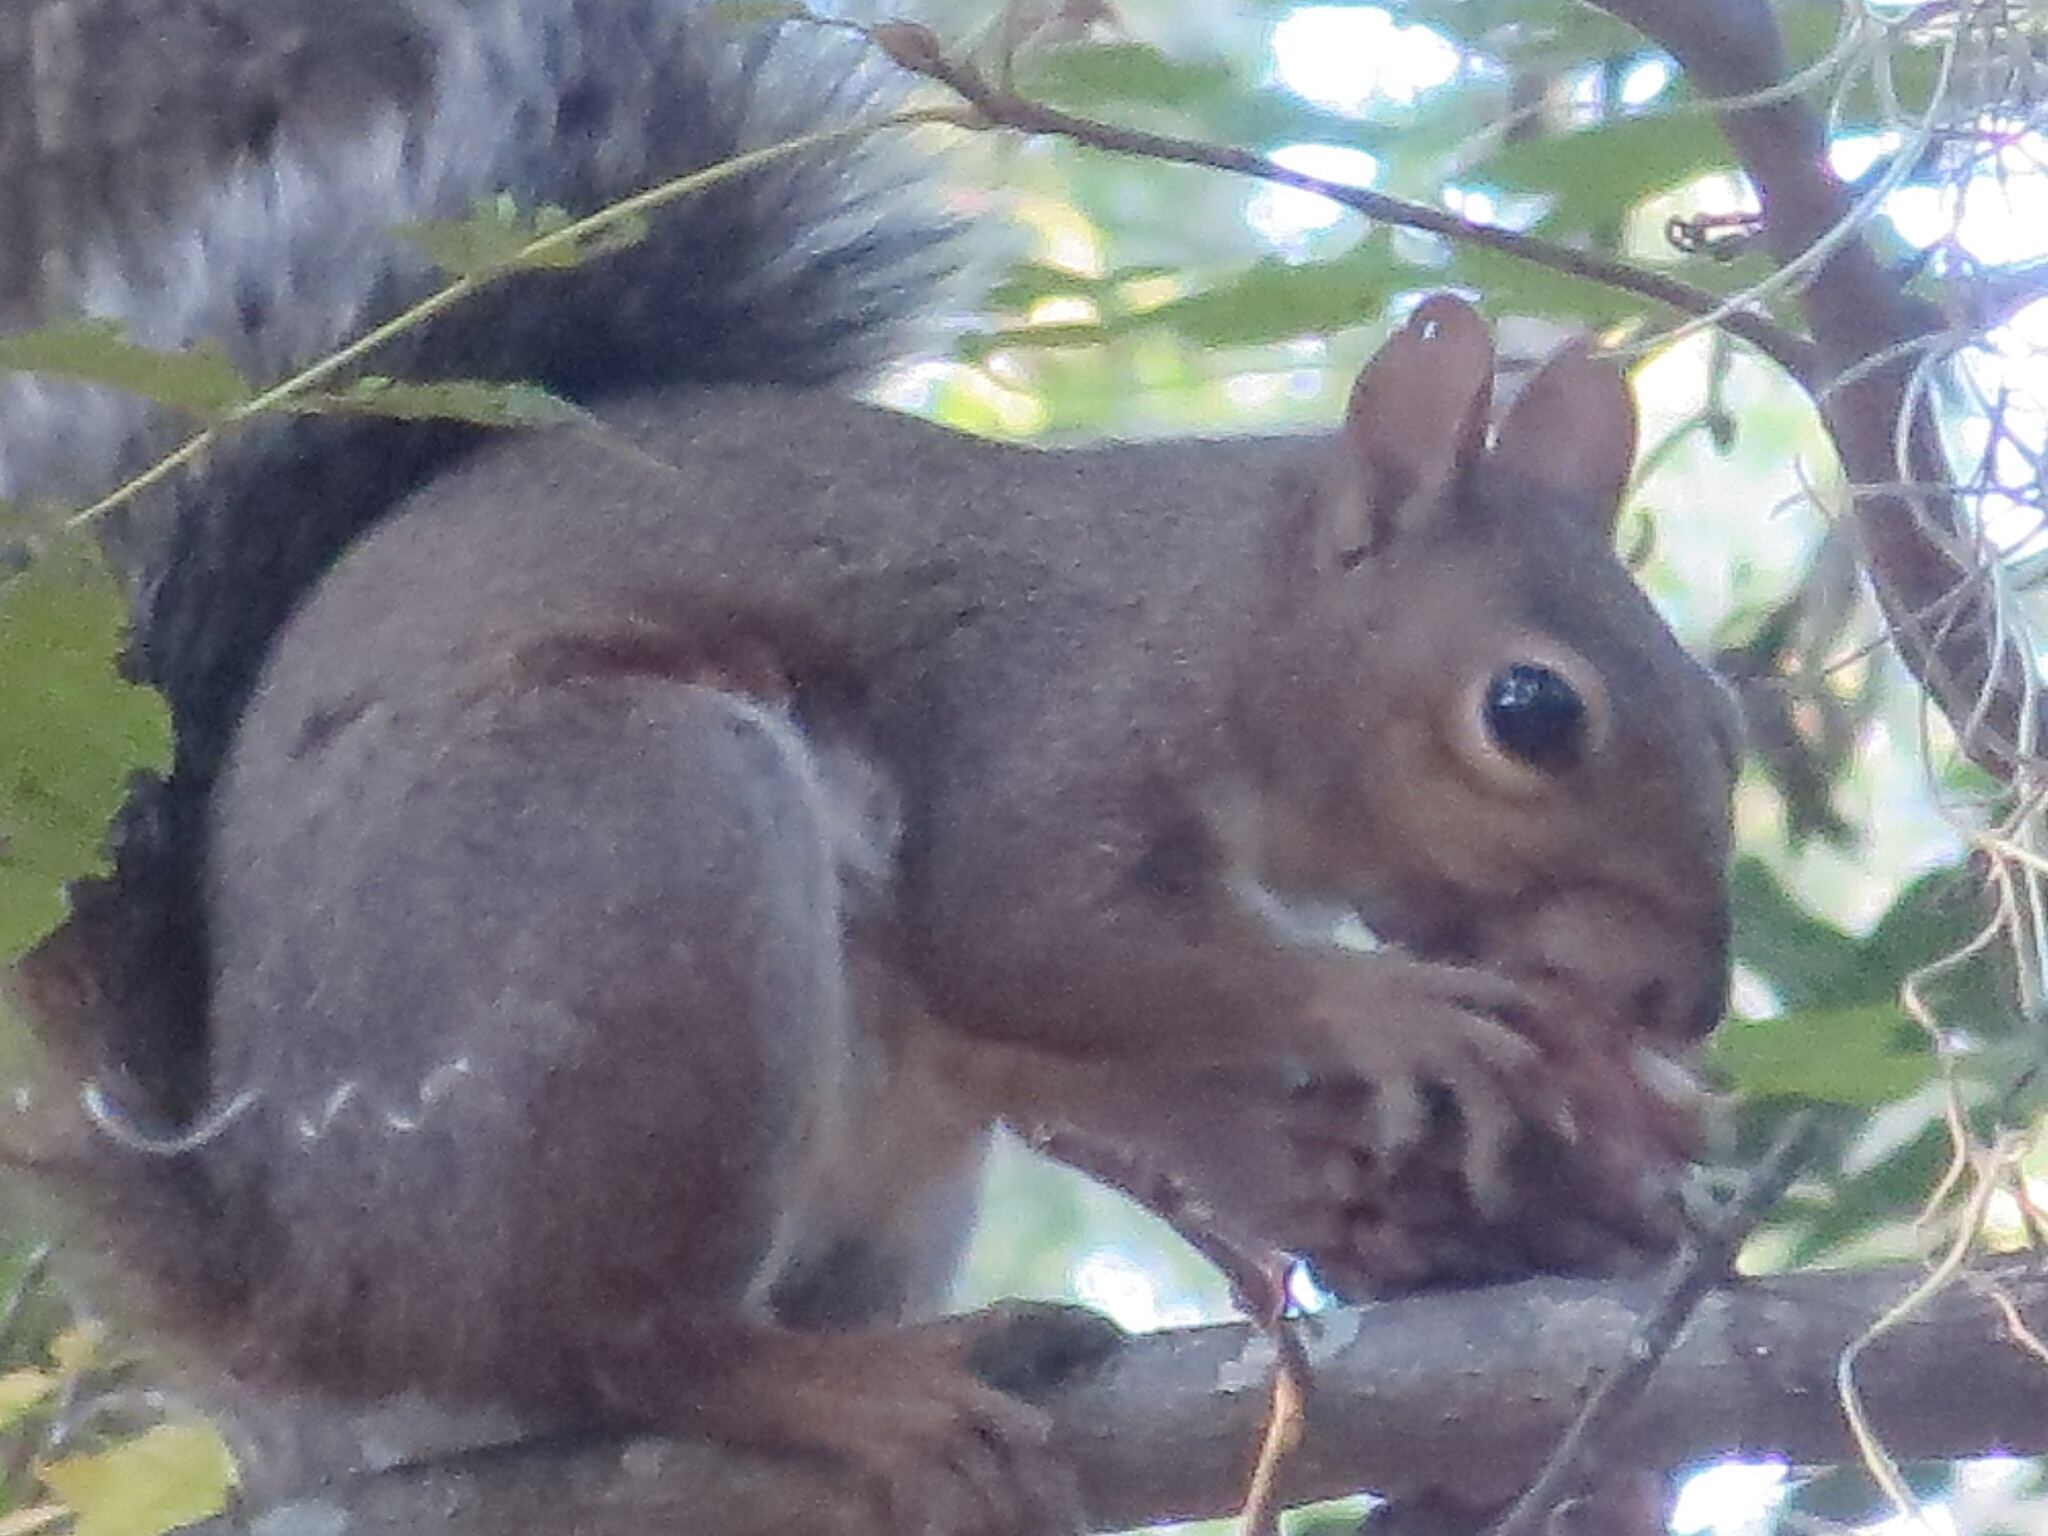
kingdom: Animalia
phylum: Chordata
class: Mammalia
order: Rodentia
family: Sciuridae
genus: Sciurus
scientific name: Sciurus carolinensis
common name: Eastern gray squirrel
